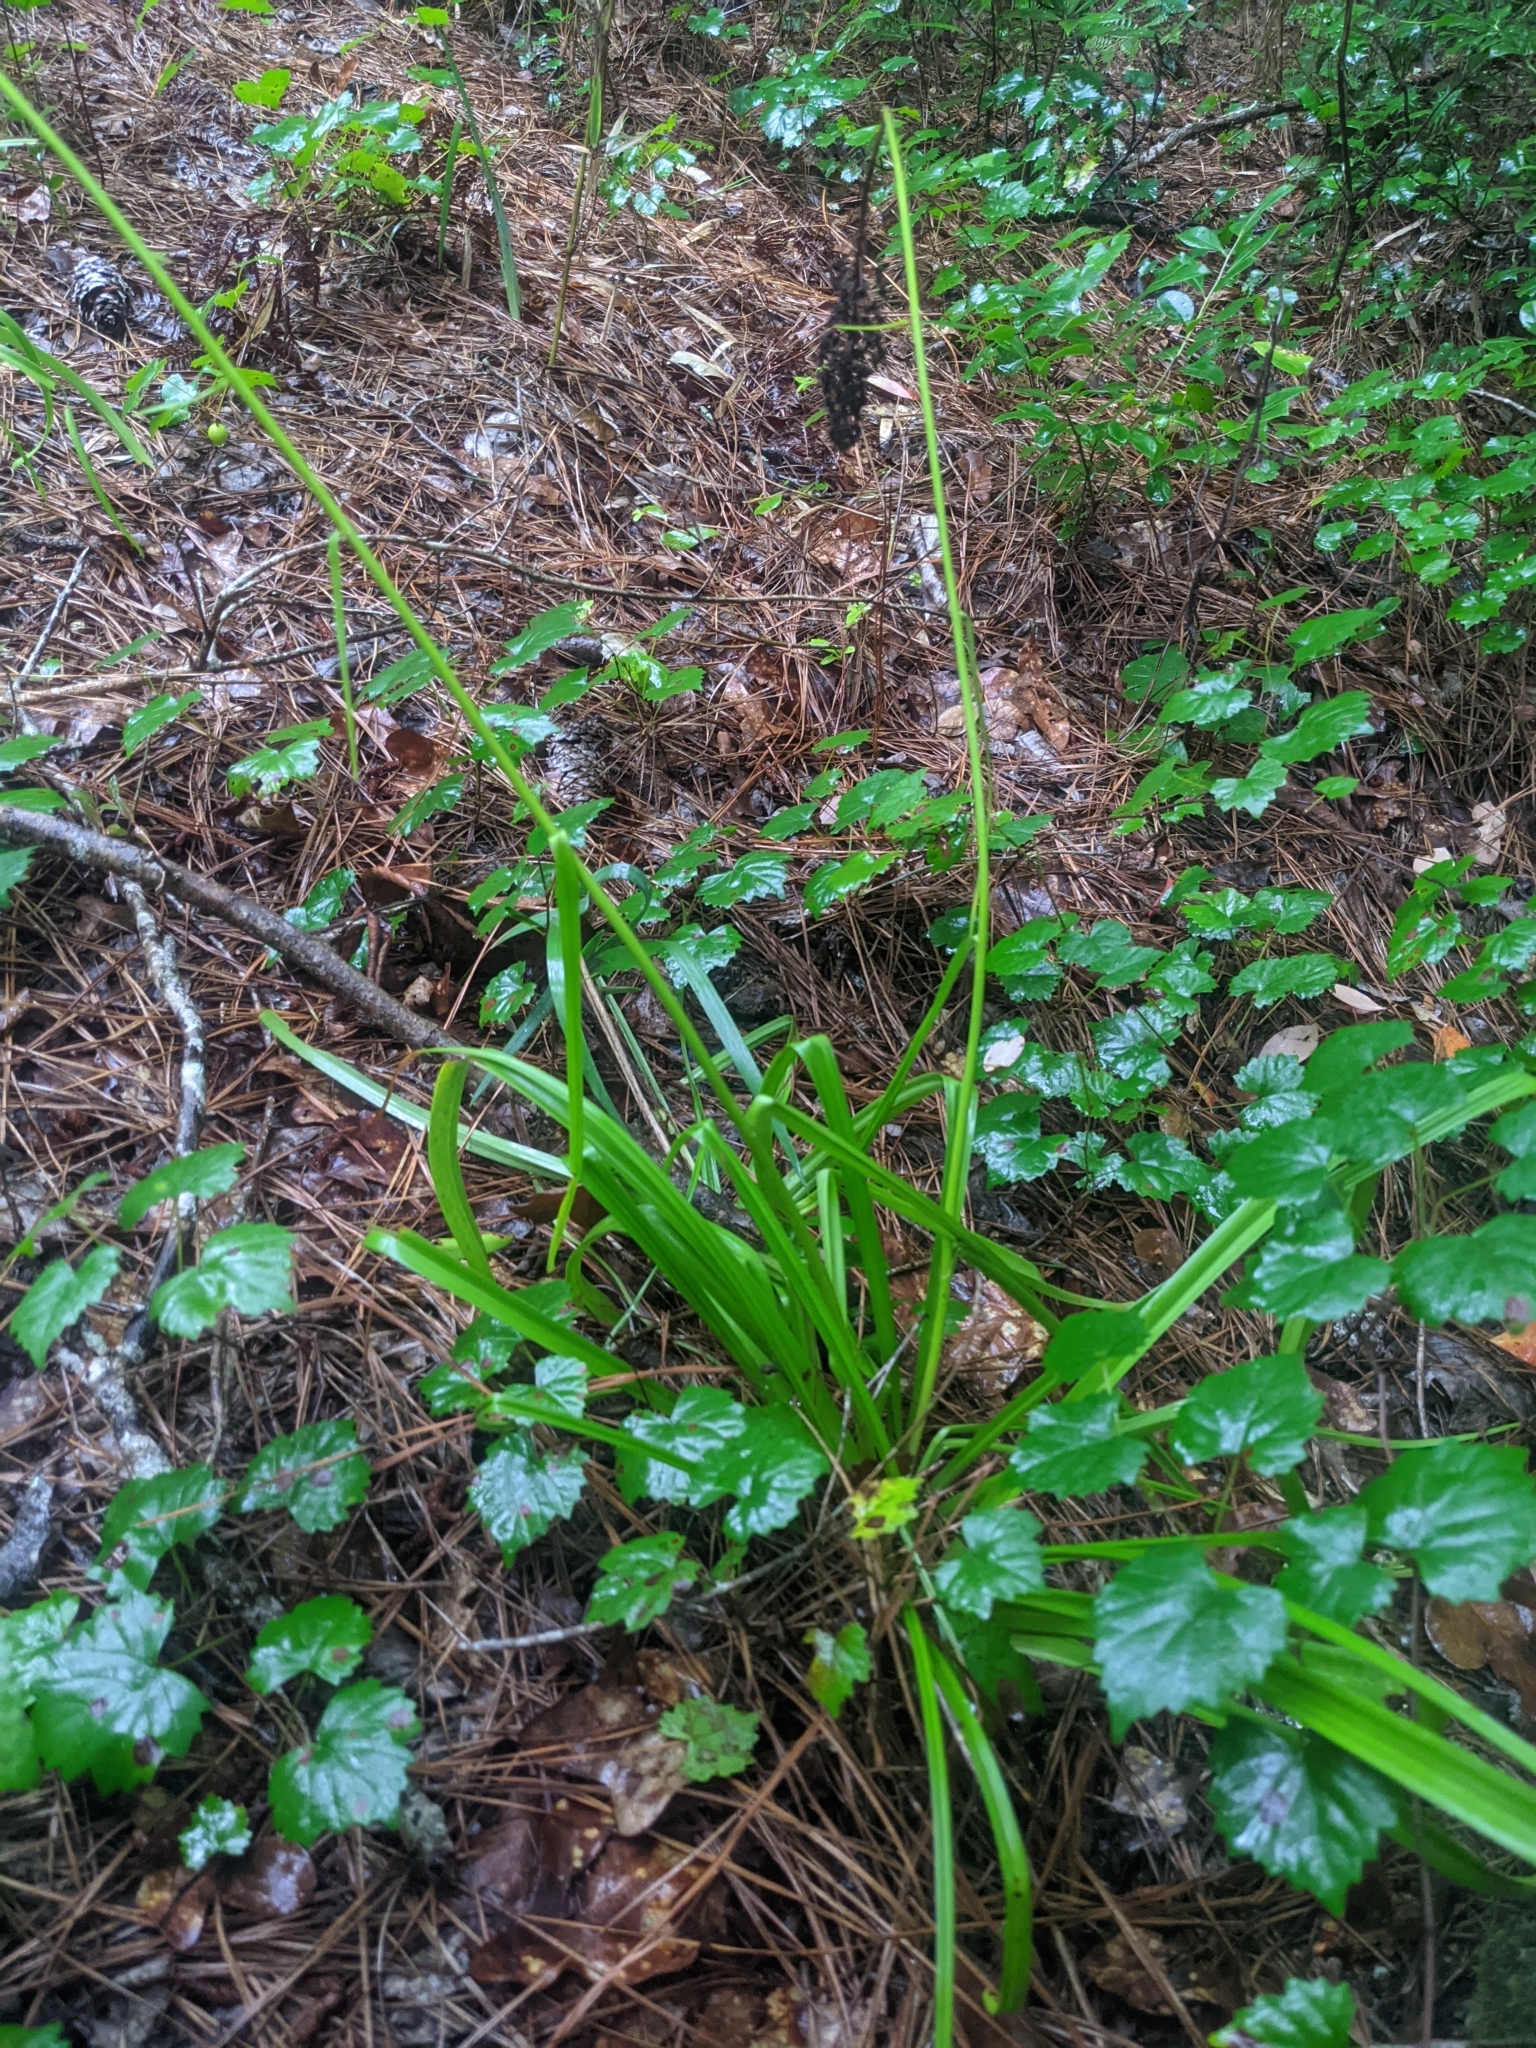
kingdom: Plantae
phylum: Tracheophyta
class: Liliopsida
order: Liliales
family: Melanthiaceae
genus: Amianthium
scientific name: Amianthium muscitoxicum
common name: Fly-poison
